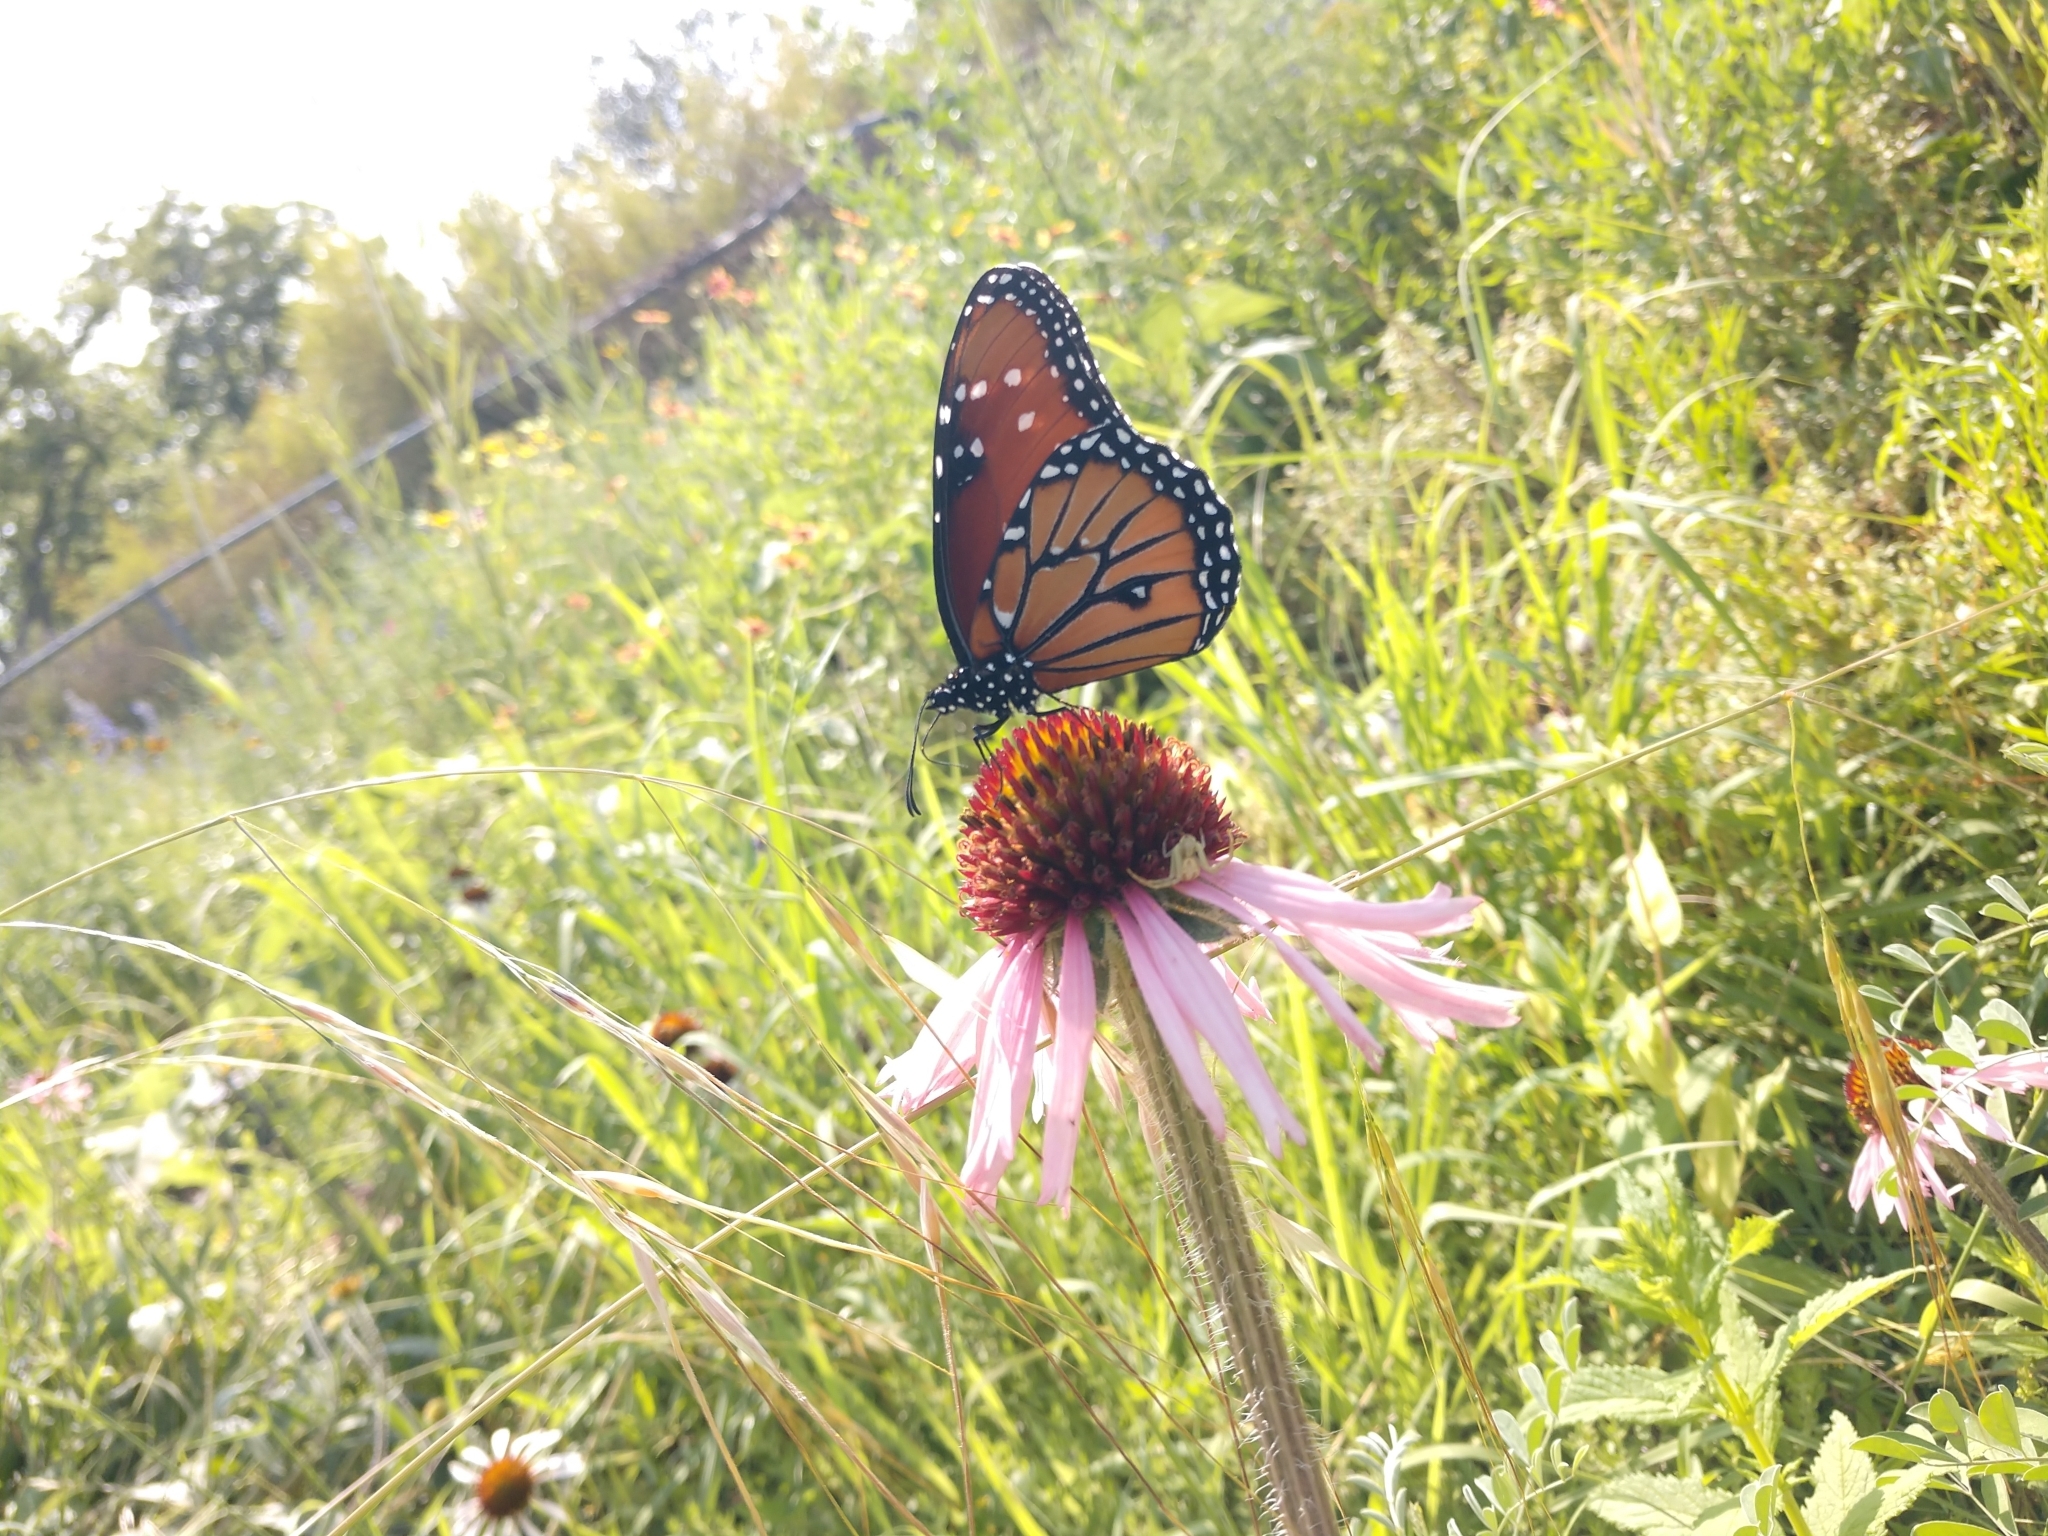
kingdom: Animalia
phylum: Arthropoda
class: Insecta
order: Lepidoptera
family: Nymphalidae
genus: Danaus
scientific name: Danaus gilippus
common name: Queen
